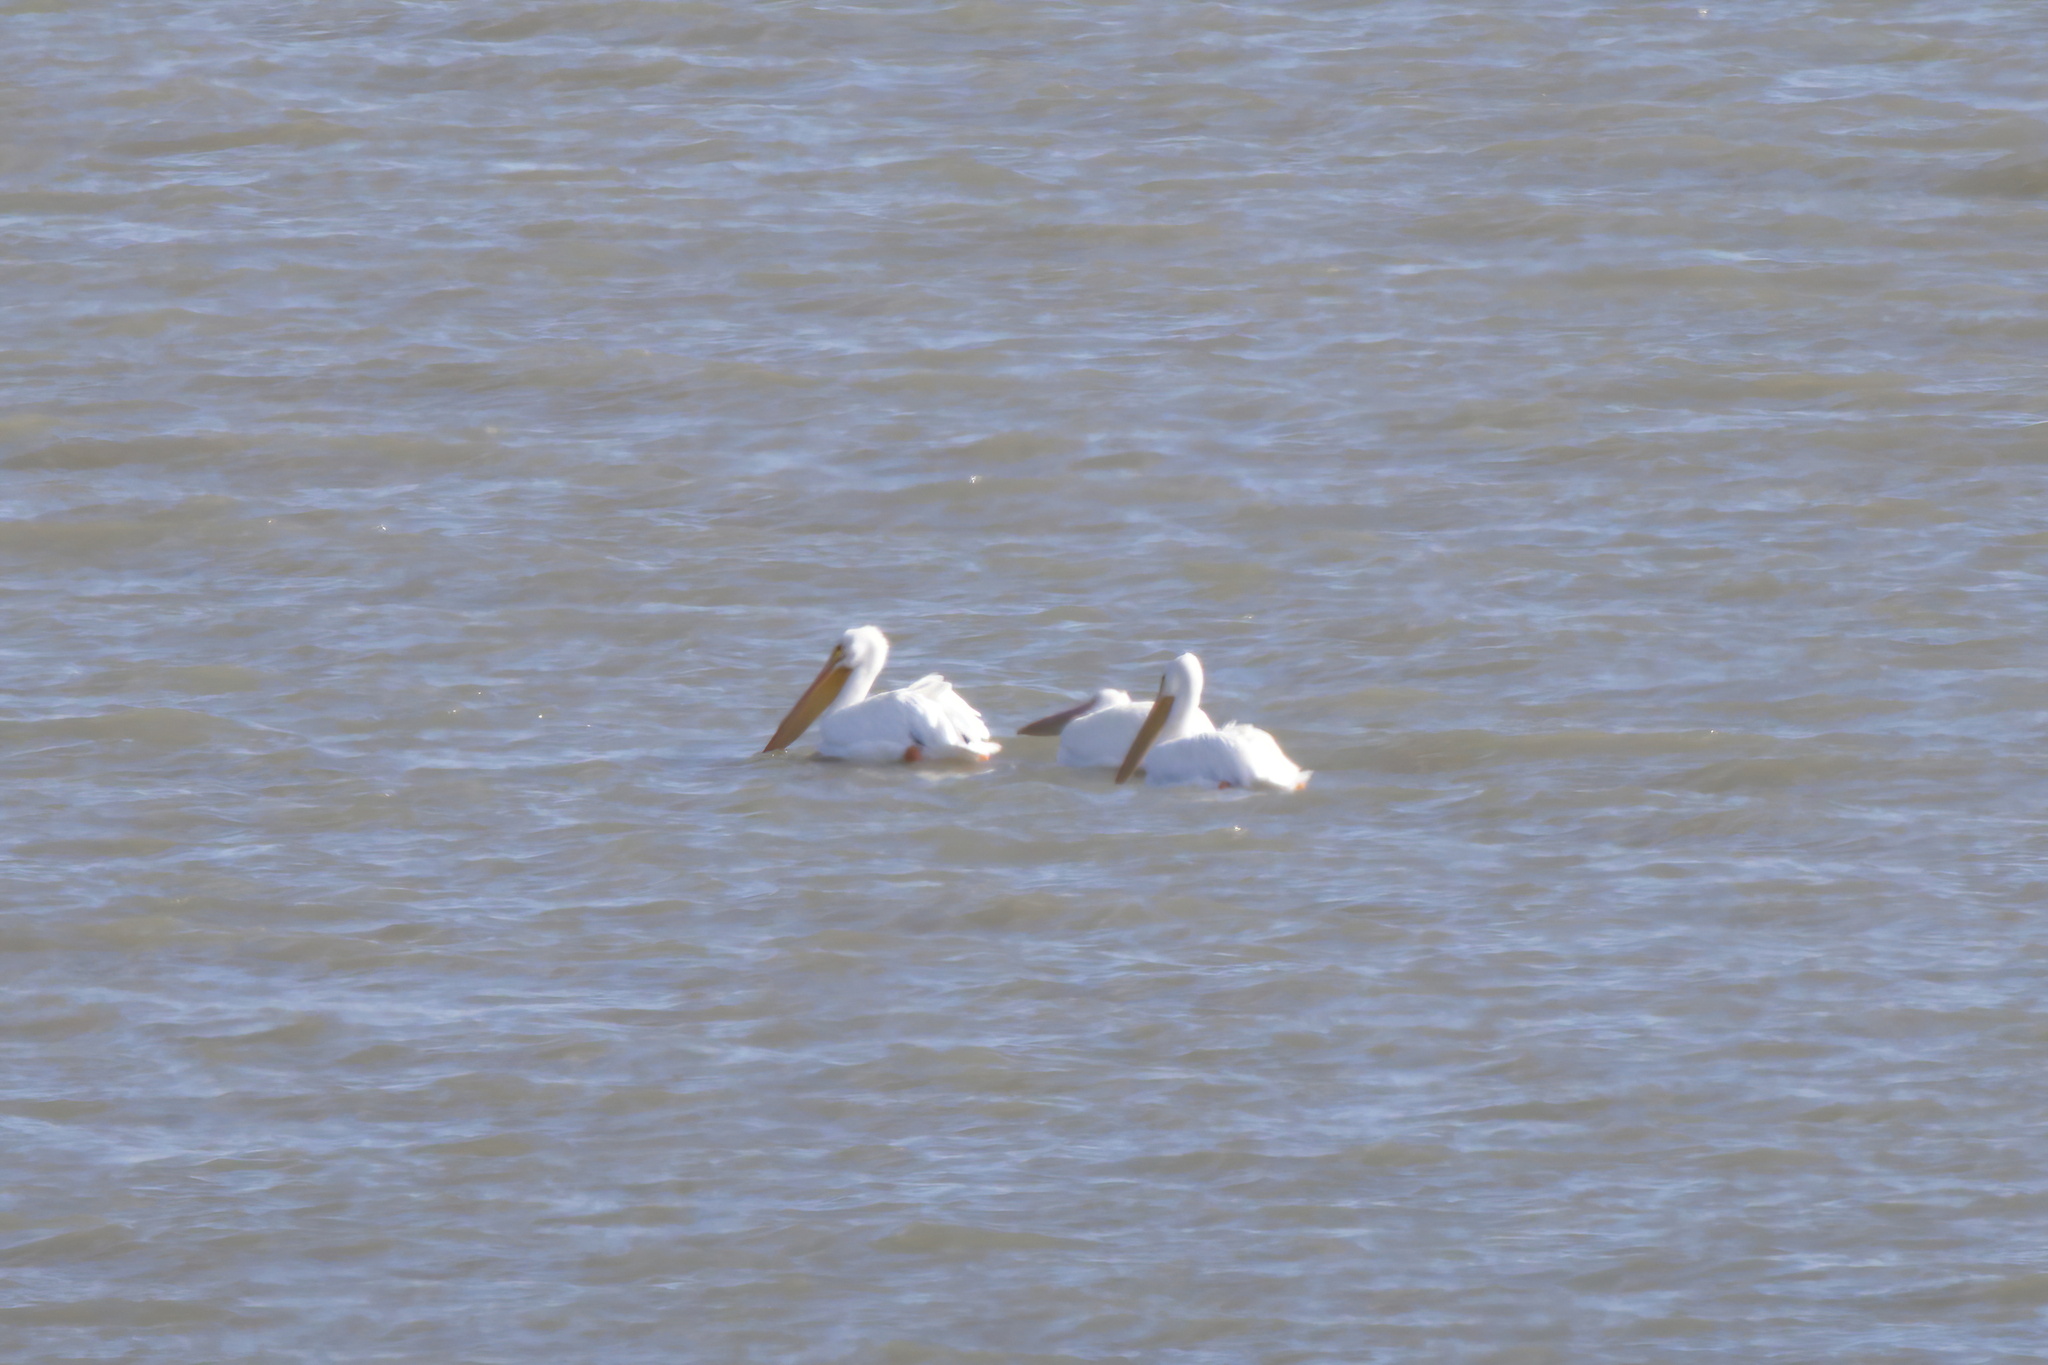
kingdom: Animalia
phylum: Chordata
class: Aves
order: Pelecaniformes
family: Pelecanidae
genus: Pelecanus
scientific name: Pelecanus erythrorhynchos
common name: American white pelican
